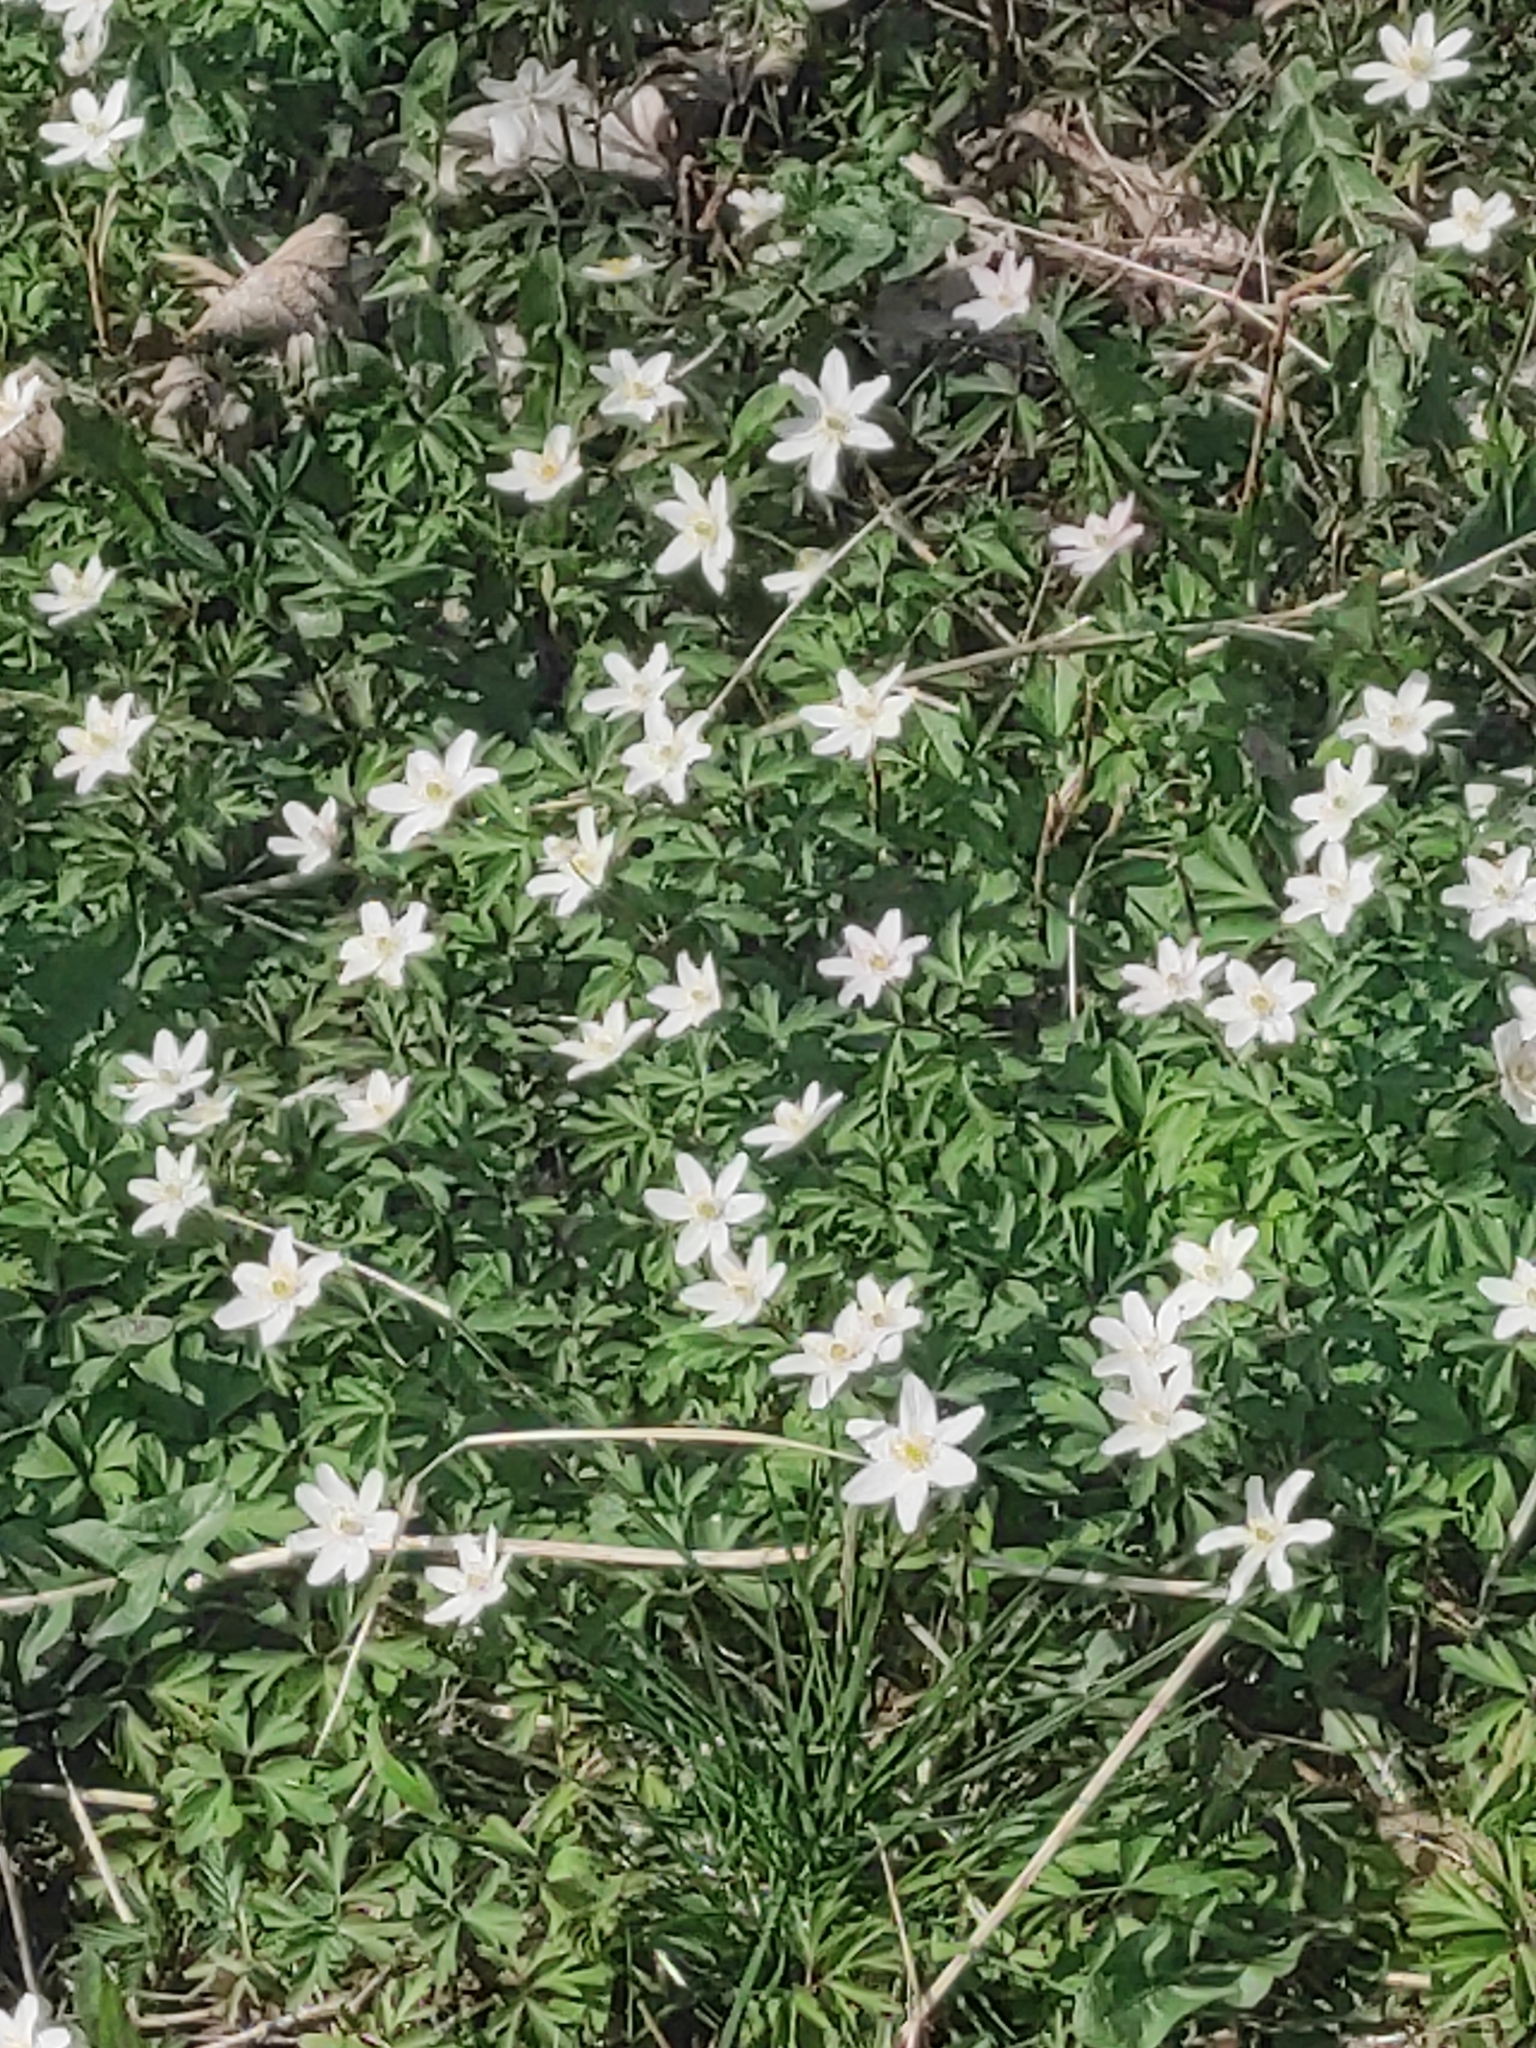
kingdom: Plantae
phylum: Tracheophyta
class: Magnoliopsida
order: Ranunculales
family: Ranunculaceae
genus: Anemone
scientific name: Anemone nemorosa
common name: Wood anemone
